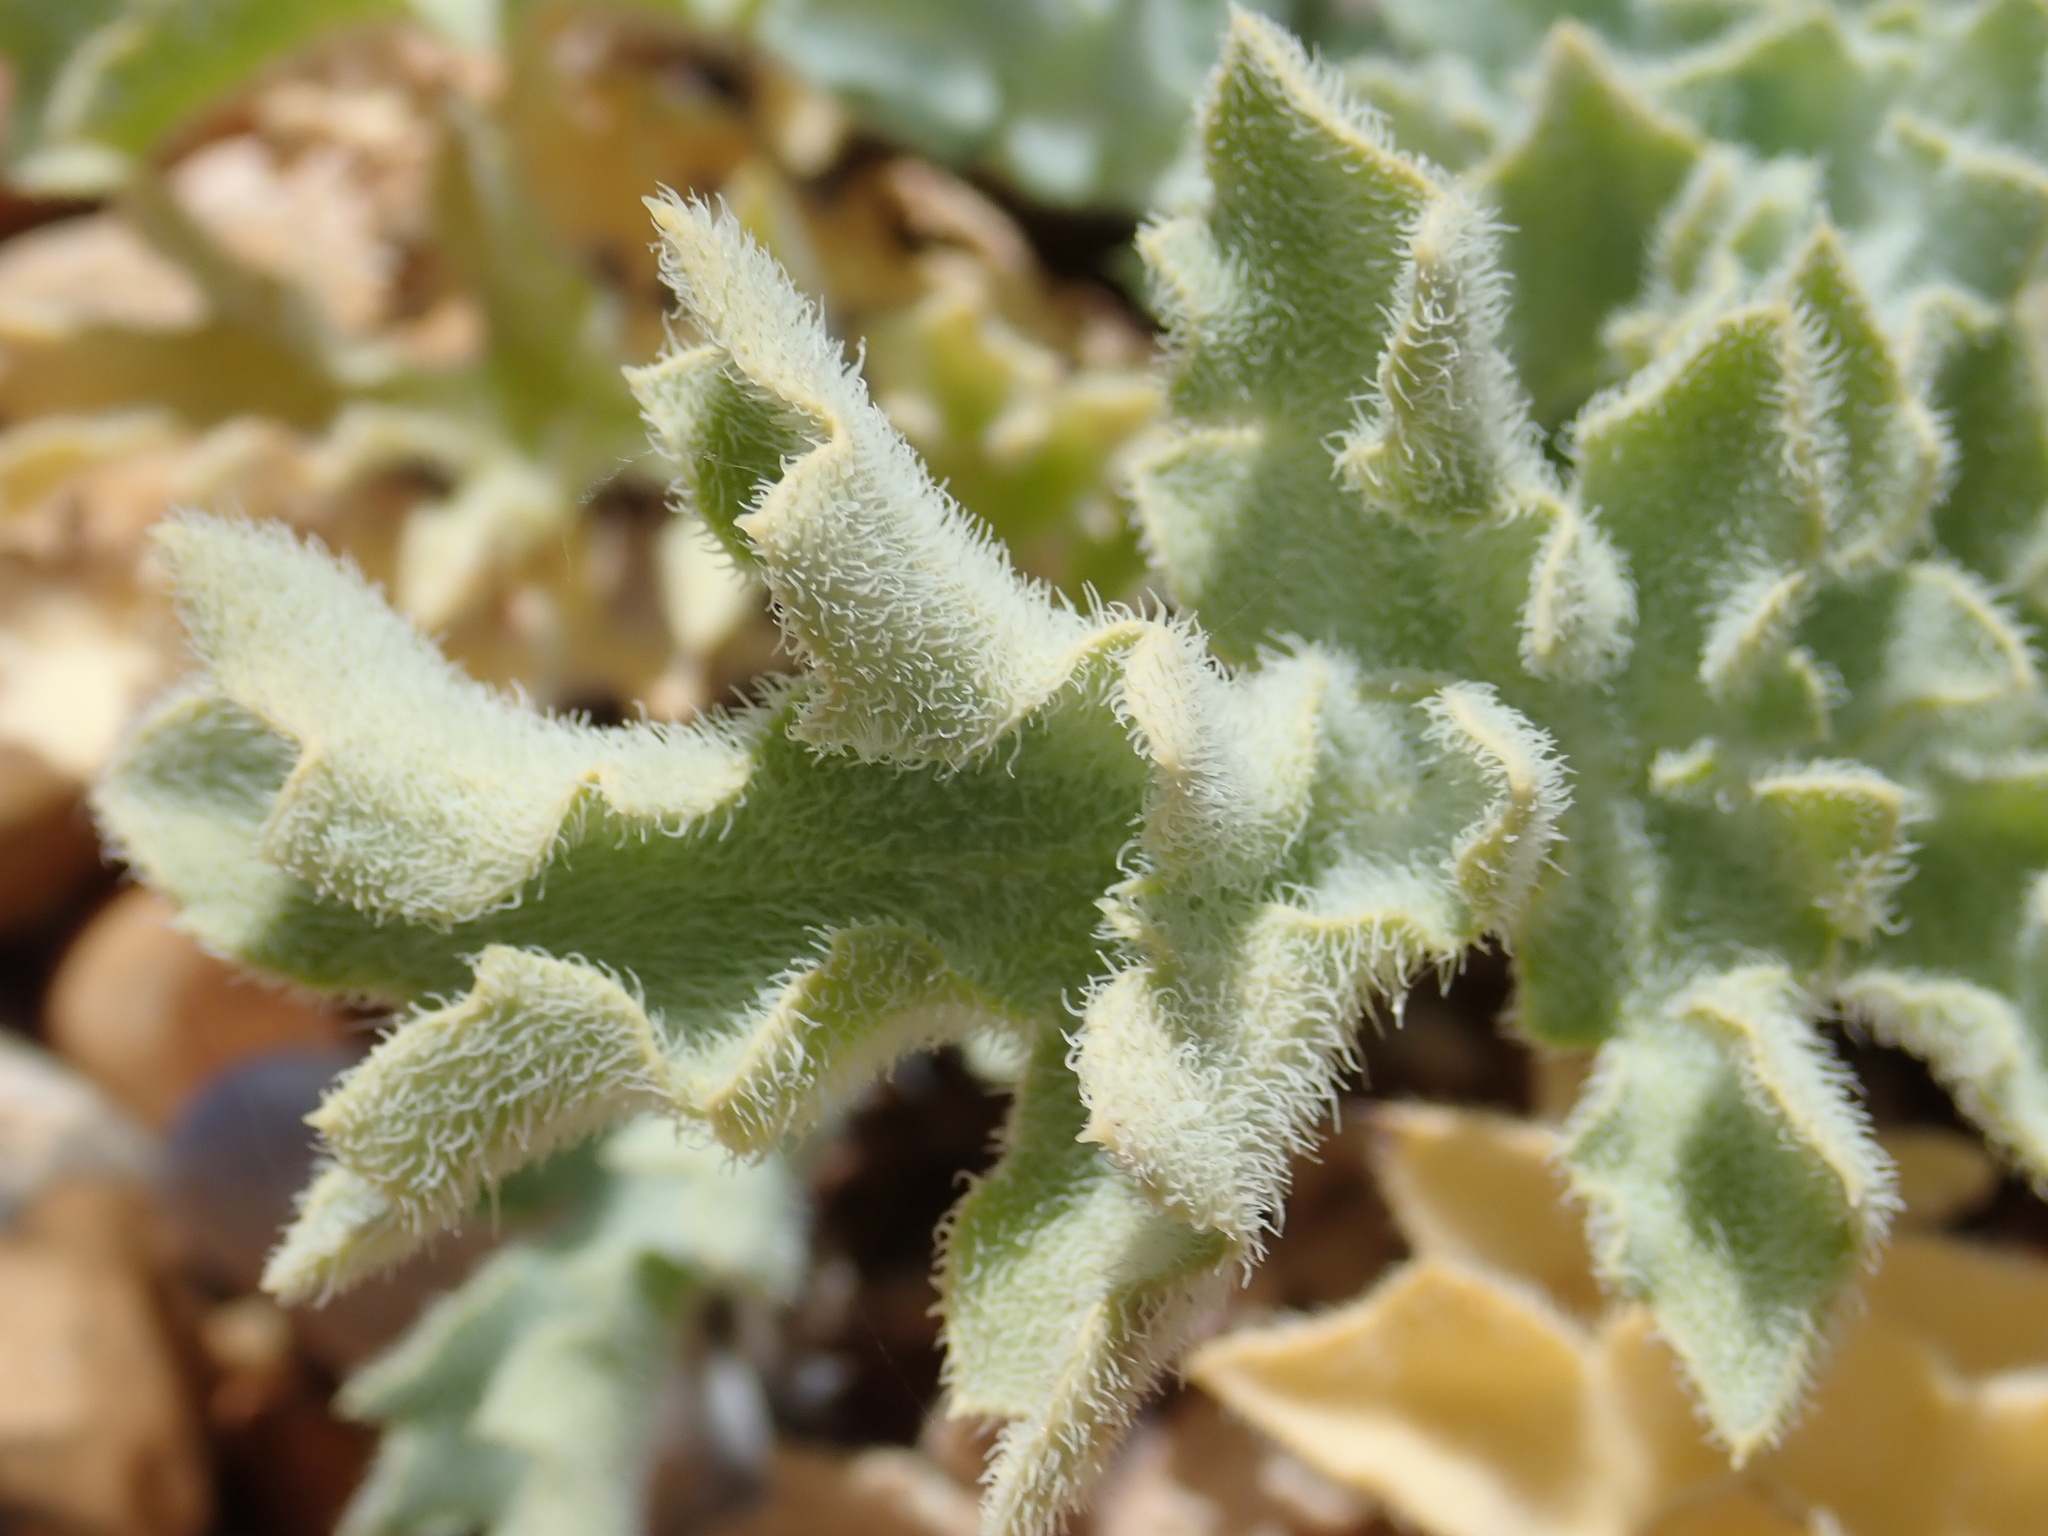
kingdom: Plantae
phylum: Tracheophyta
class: Magnoliopsida
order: Ranunculales
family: Papaveraceae
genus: Glaucium
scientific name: Glaucium flavum
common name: Yellow horned-poppy
